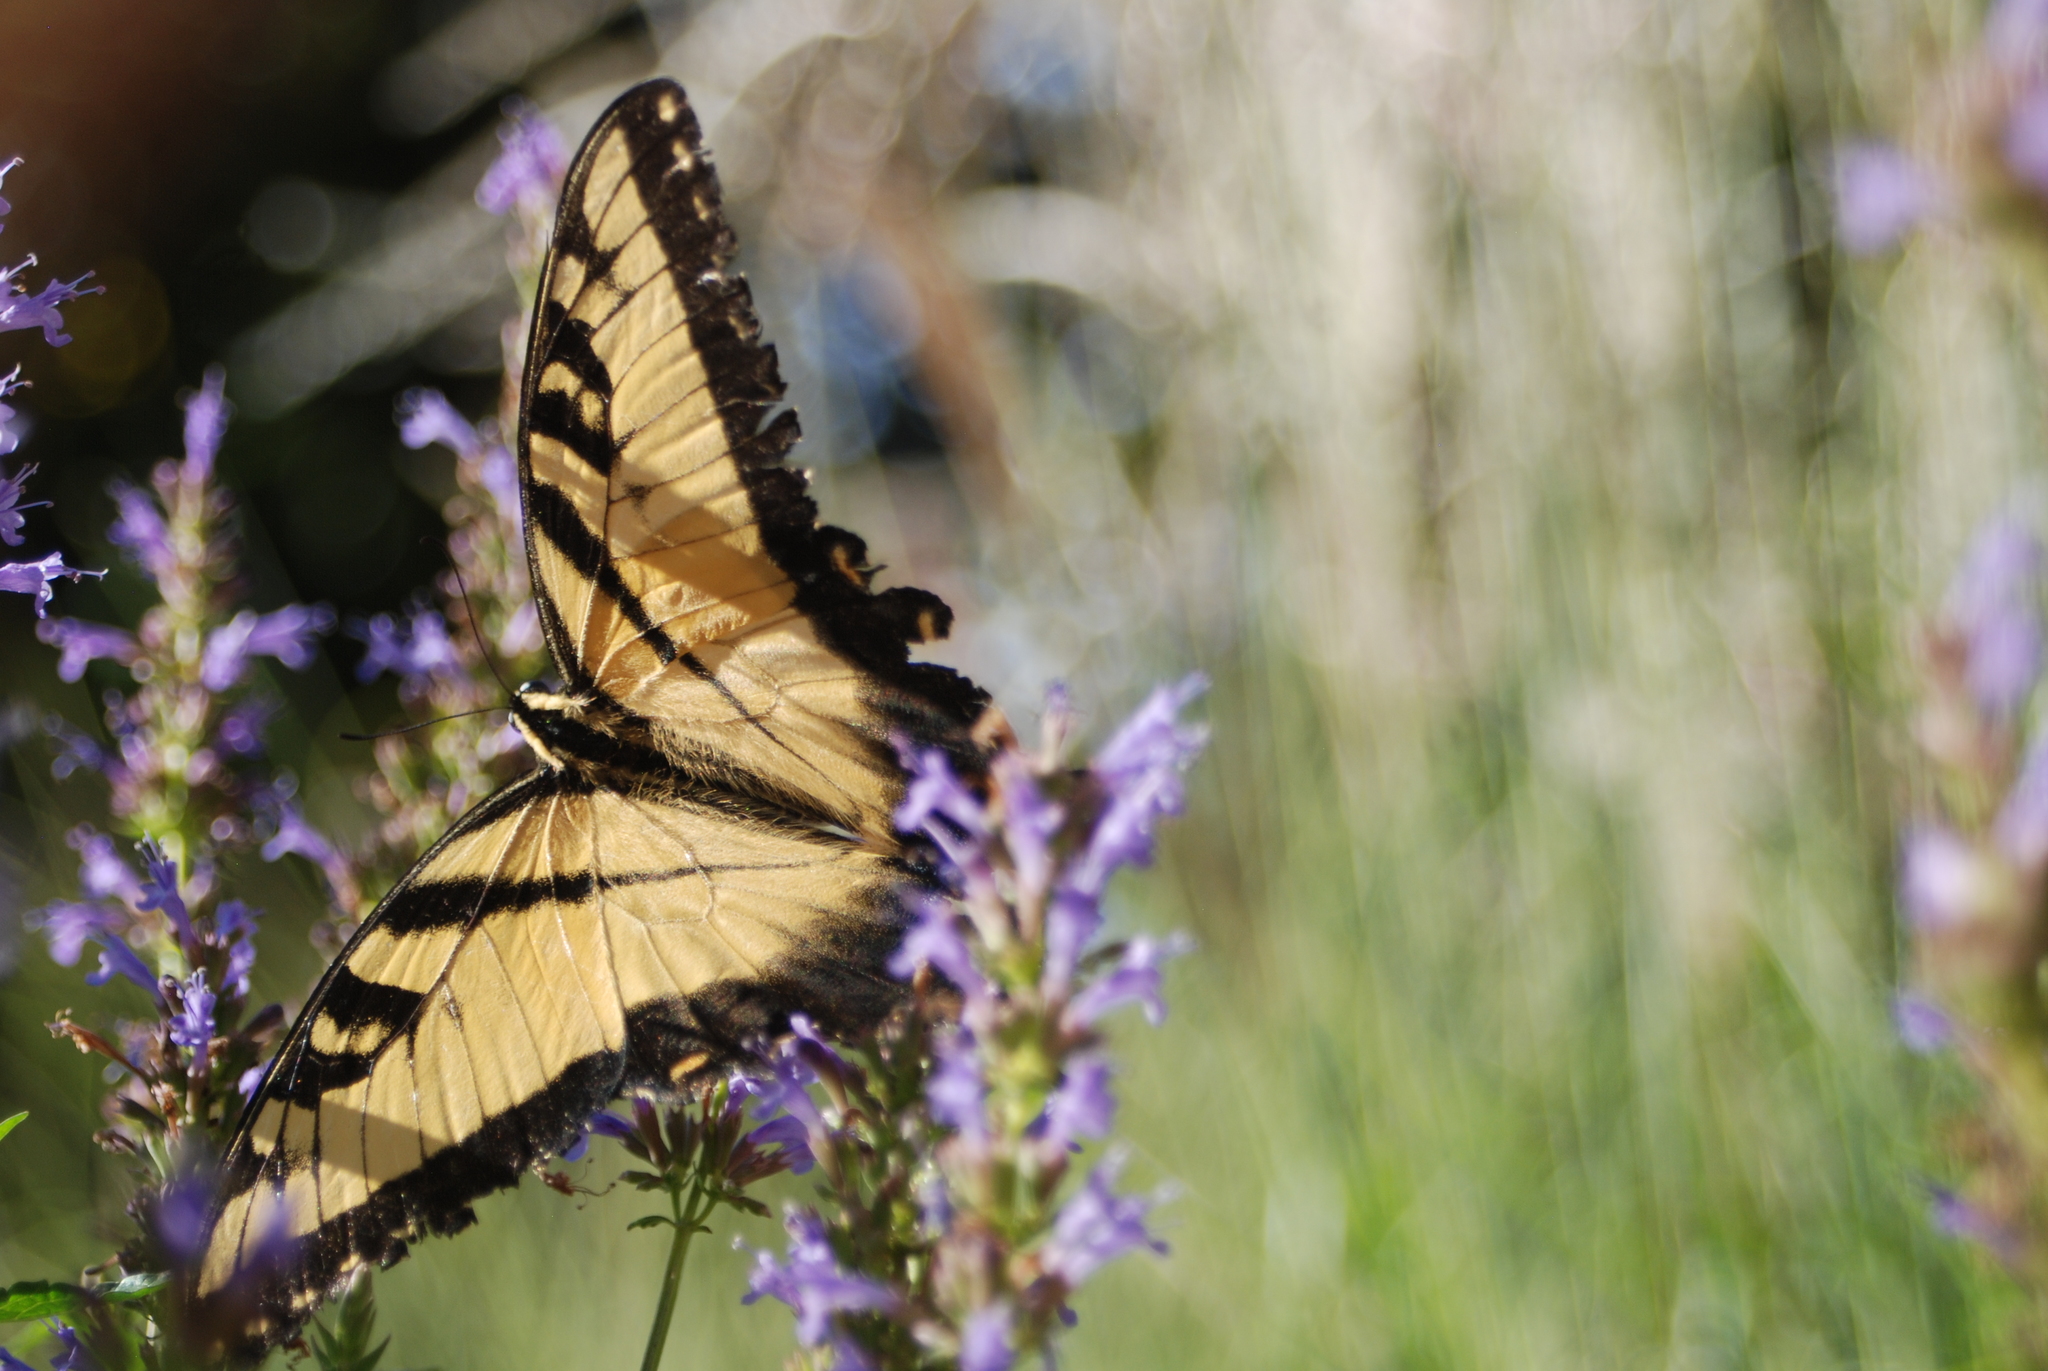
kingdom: Animalia
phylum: Arthropoda
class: Insecta
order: Lepidoptera
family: Papilionidae
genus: Papilio
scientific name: Papilio glaucus
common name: Tiger swallowtail
